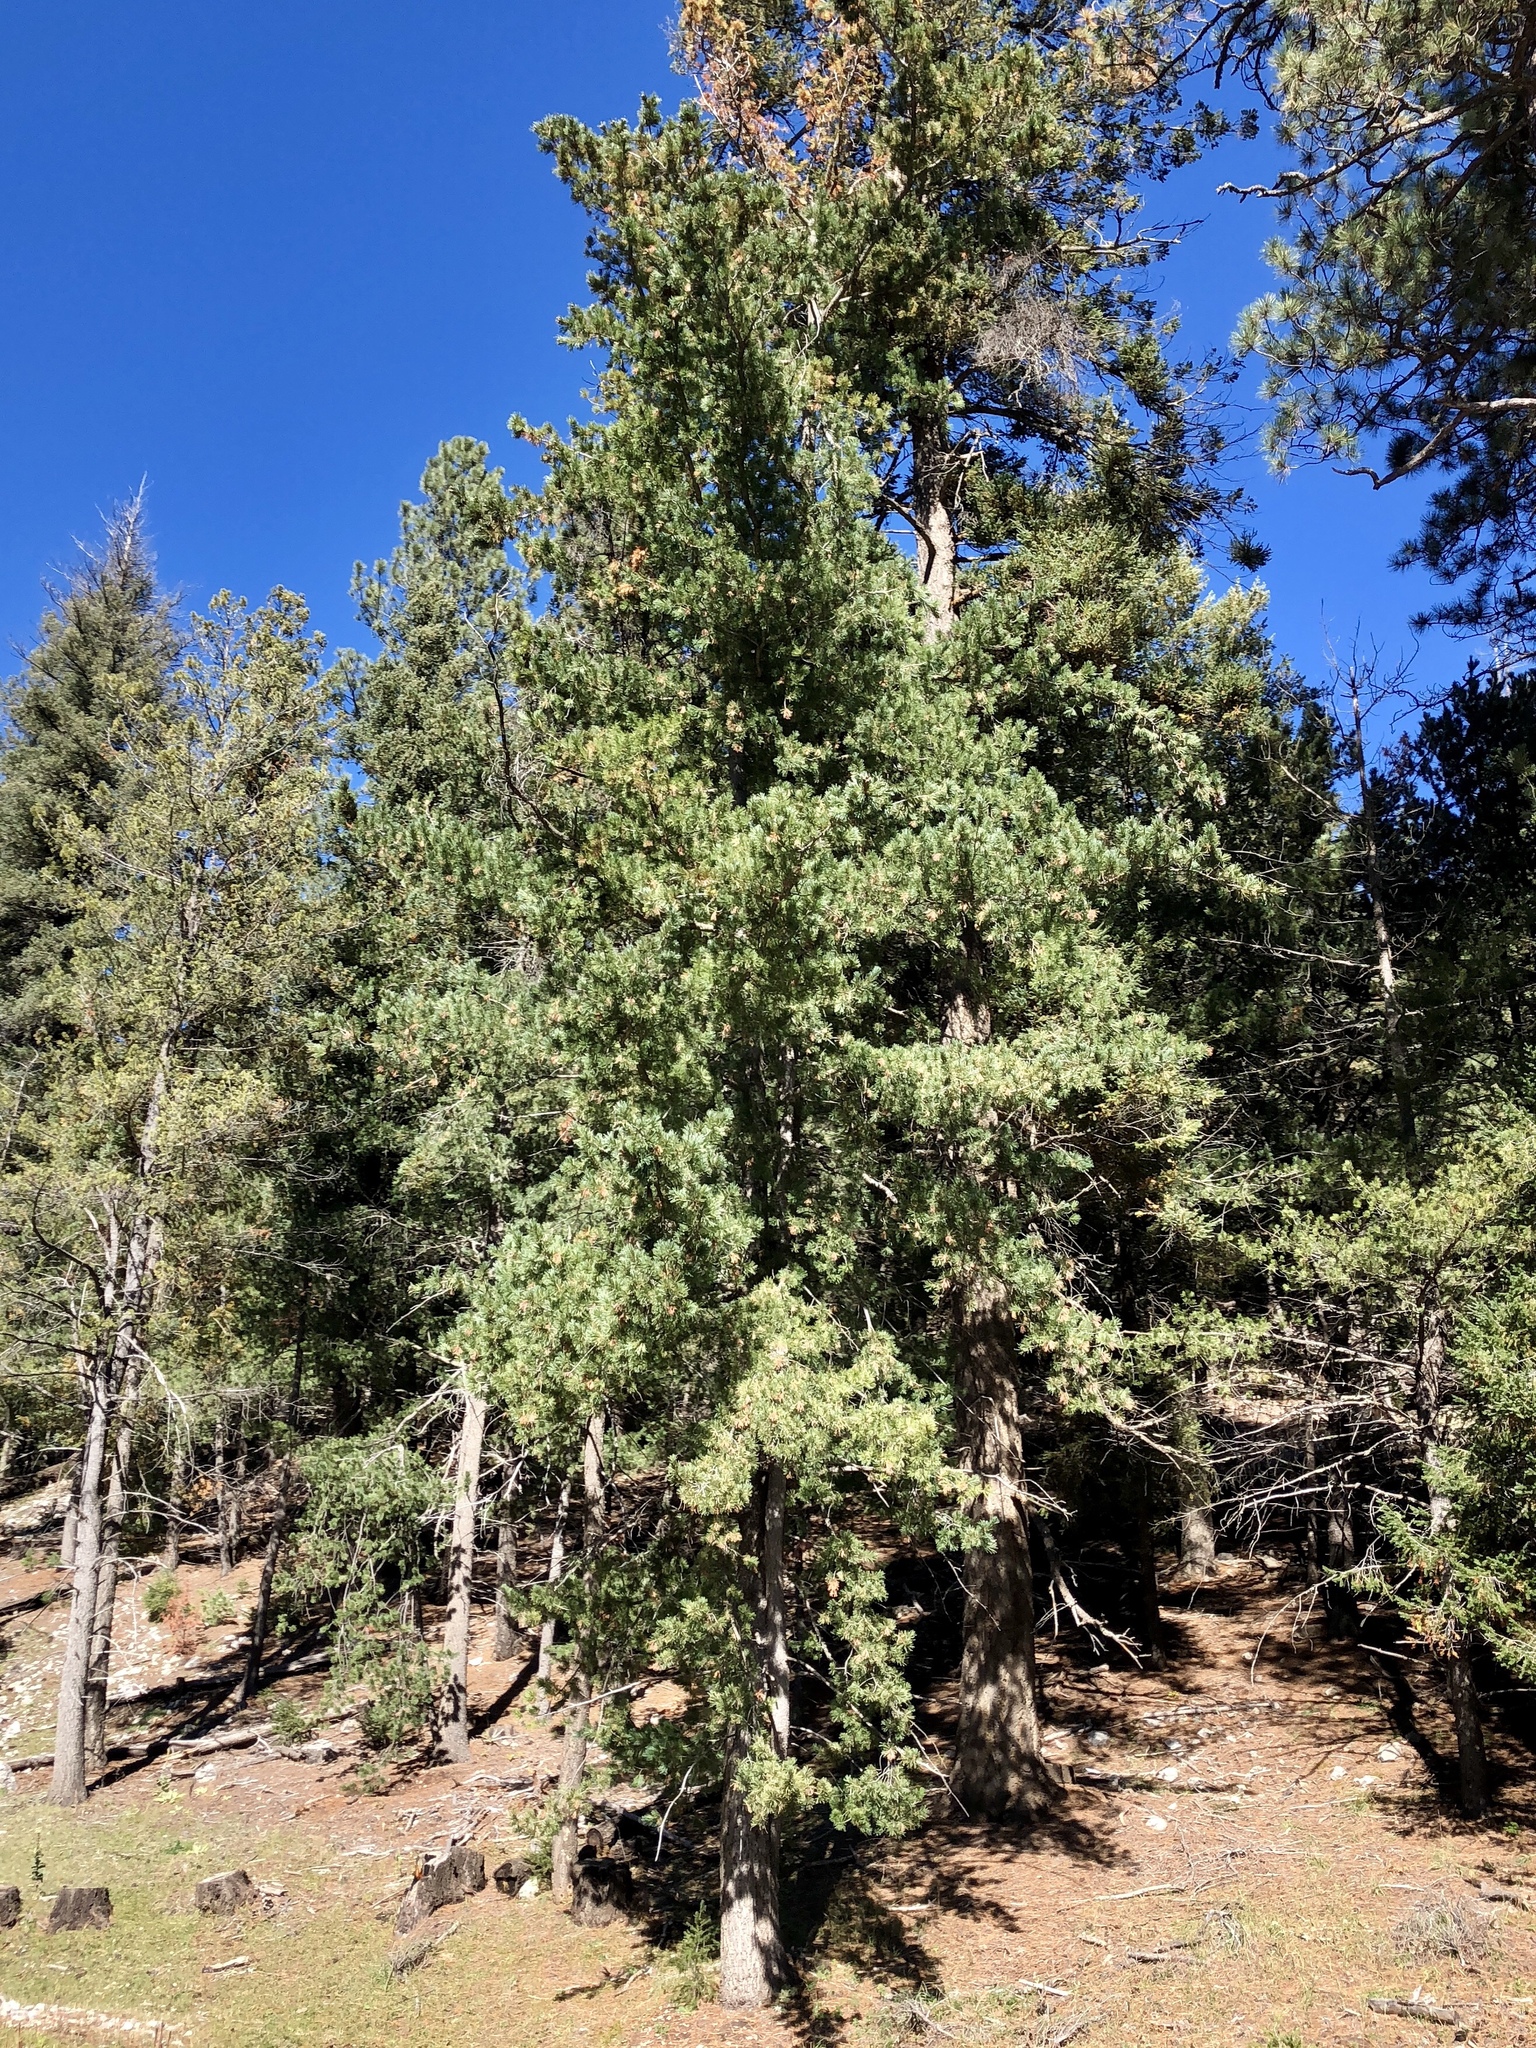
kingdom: Plantae
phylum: Tracheophyta
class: Pinopsida
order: Pinales
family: Pinaceae
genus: Pinus
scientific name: Pinus strobiformis
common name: Southwestern white pine
